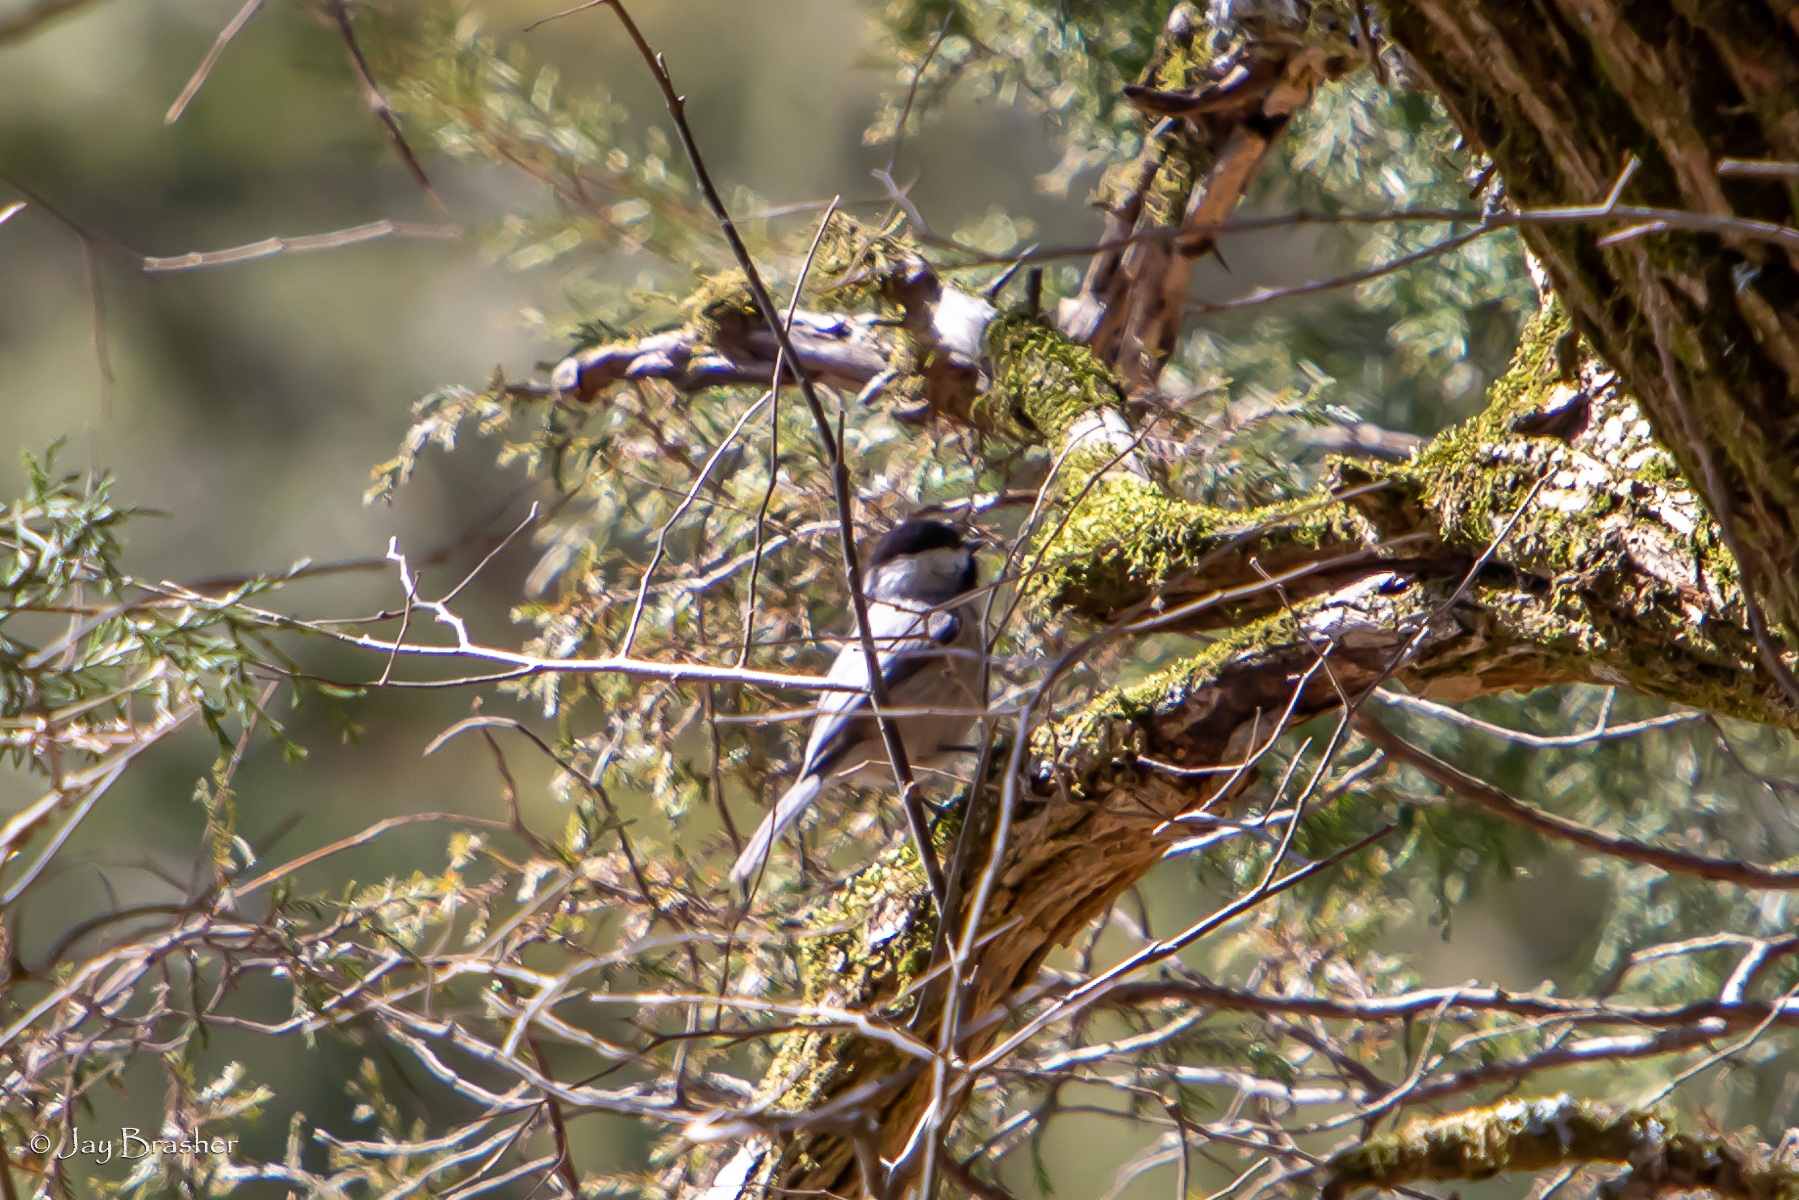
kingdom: Animalia
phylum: Chordata
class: Aves
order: Passeriformes
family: Paridae
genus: Poecile
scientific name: Poecile carolinensis
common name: Carolina chickadee
